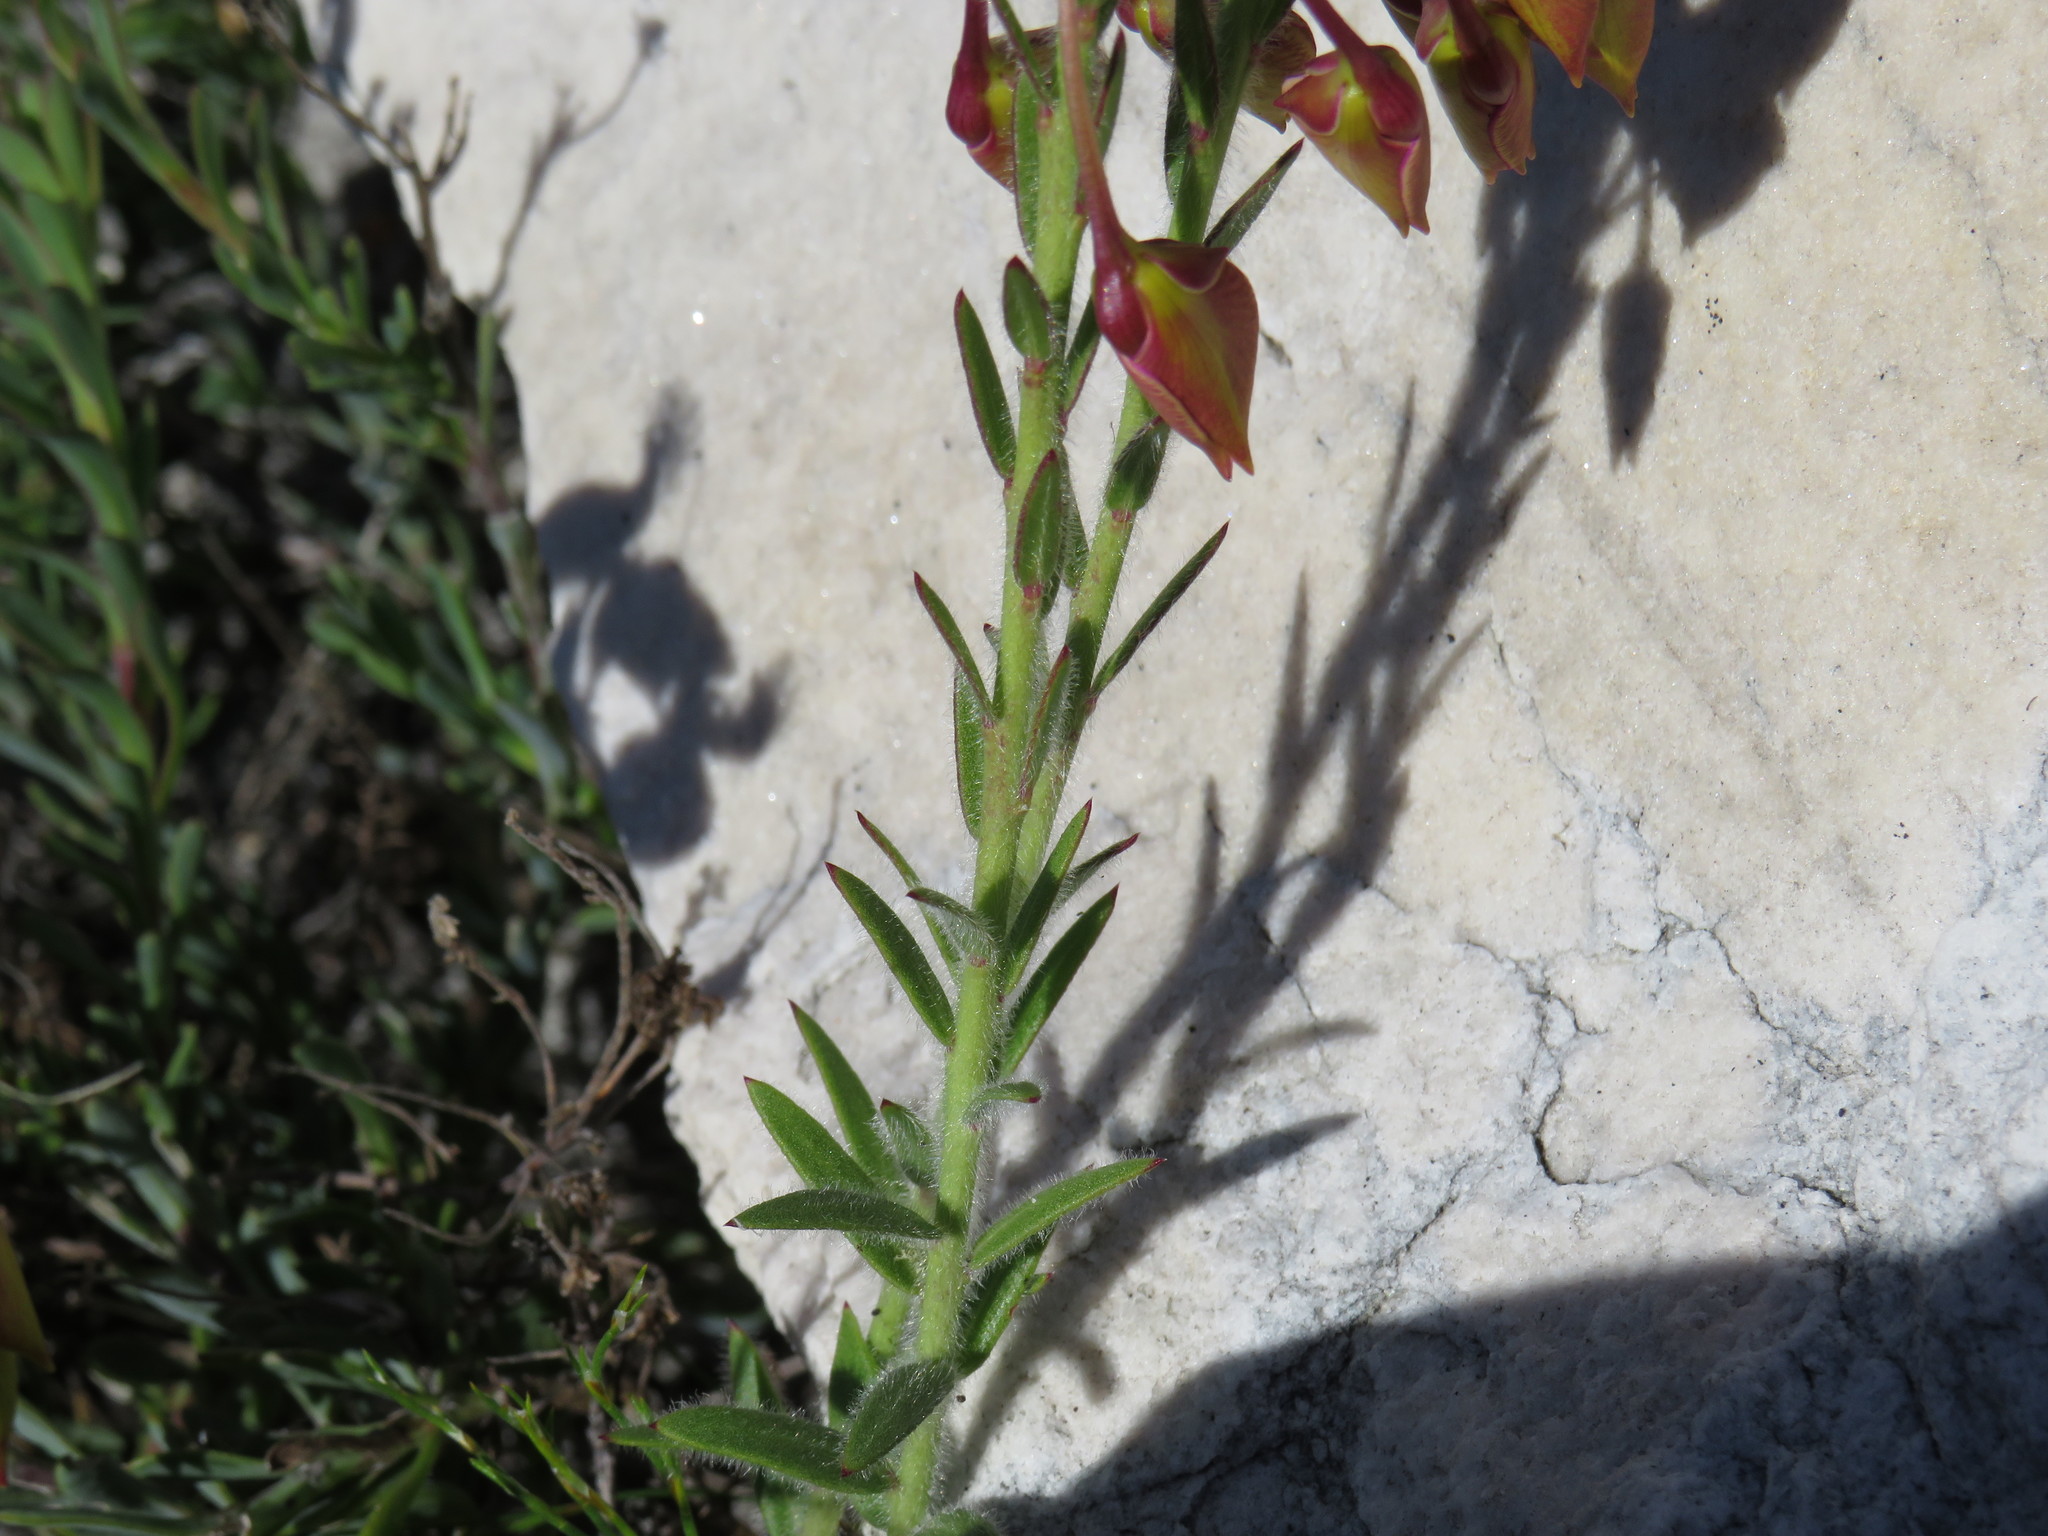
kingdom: Plantae
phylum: Tracheophyta
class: Magnoliopsida
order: Fabales
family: Polygalaceae
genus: Polygala
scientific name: Polygala bracteolata
